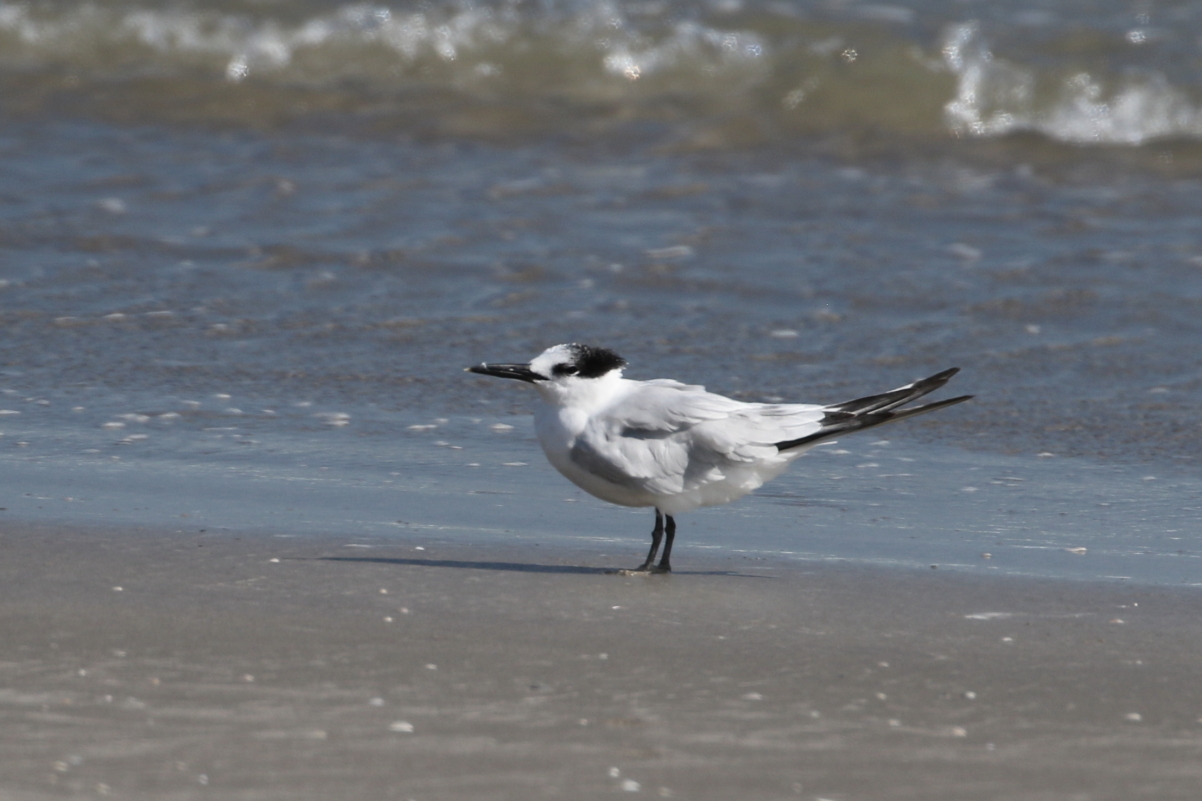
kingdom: Animalia
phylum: Chordata
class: Aves
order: Charadriiformes
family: Laridae
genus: Thalasseus
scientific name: Thalasseus sandvicensis
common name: Sandwich tern
